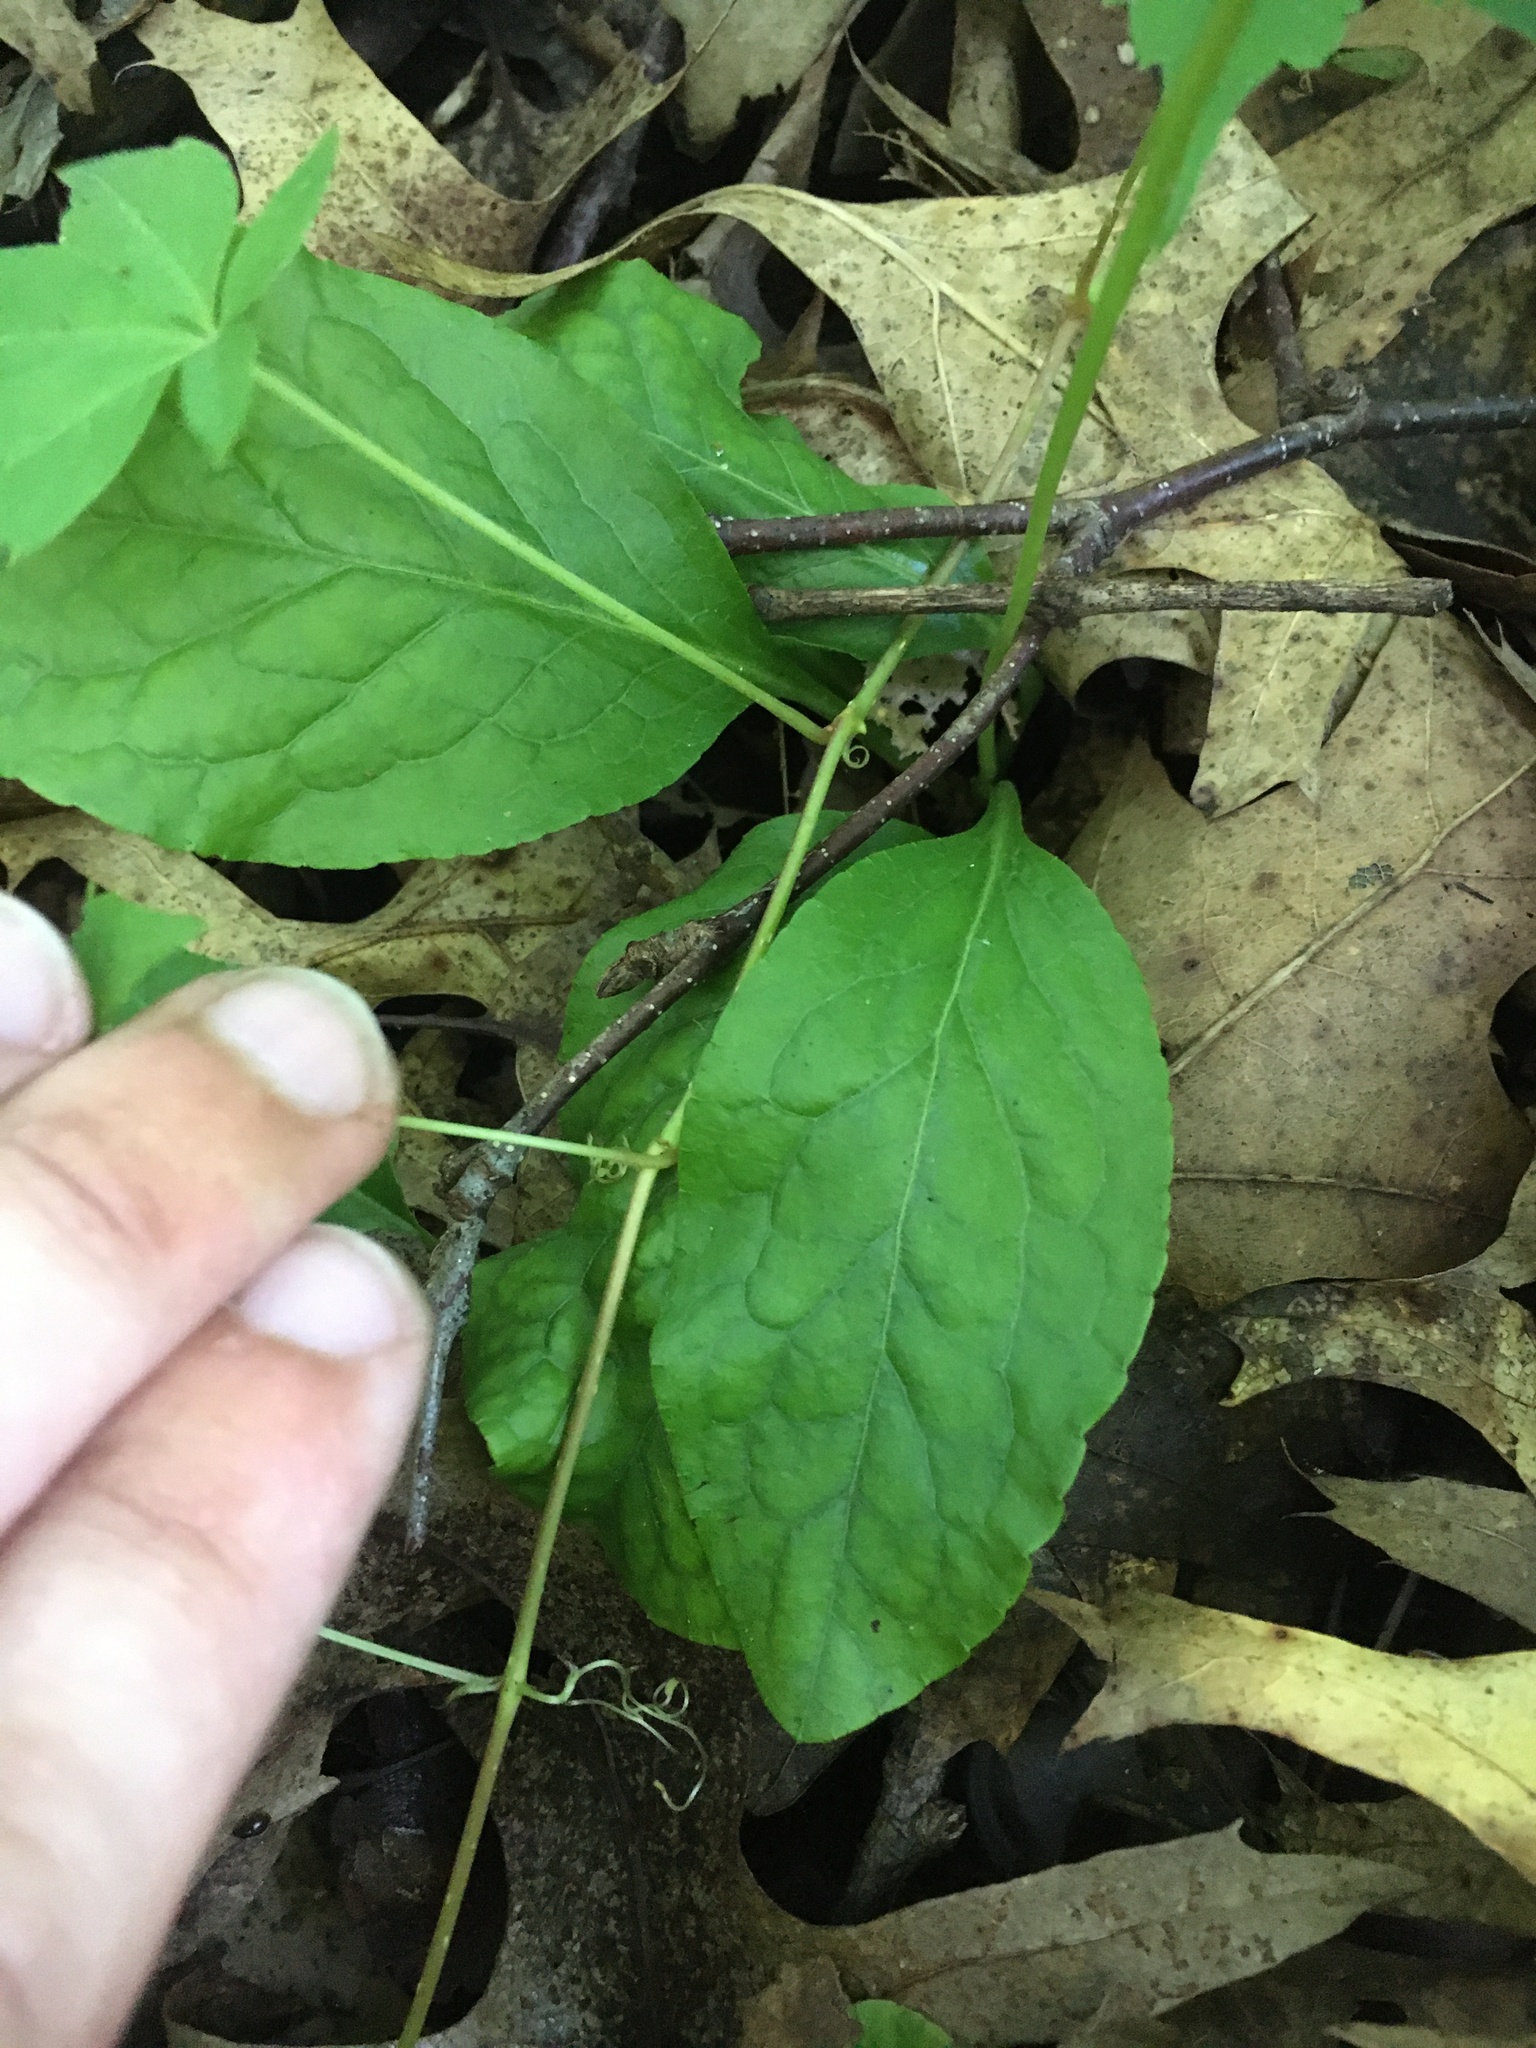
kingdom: Plantae
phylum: Tracheophyta
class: Magnoliopsida
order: Ericales
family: Ericaceae
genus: Pyrola
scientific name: Pyrola elliptica
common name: Shinleaf
